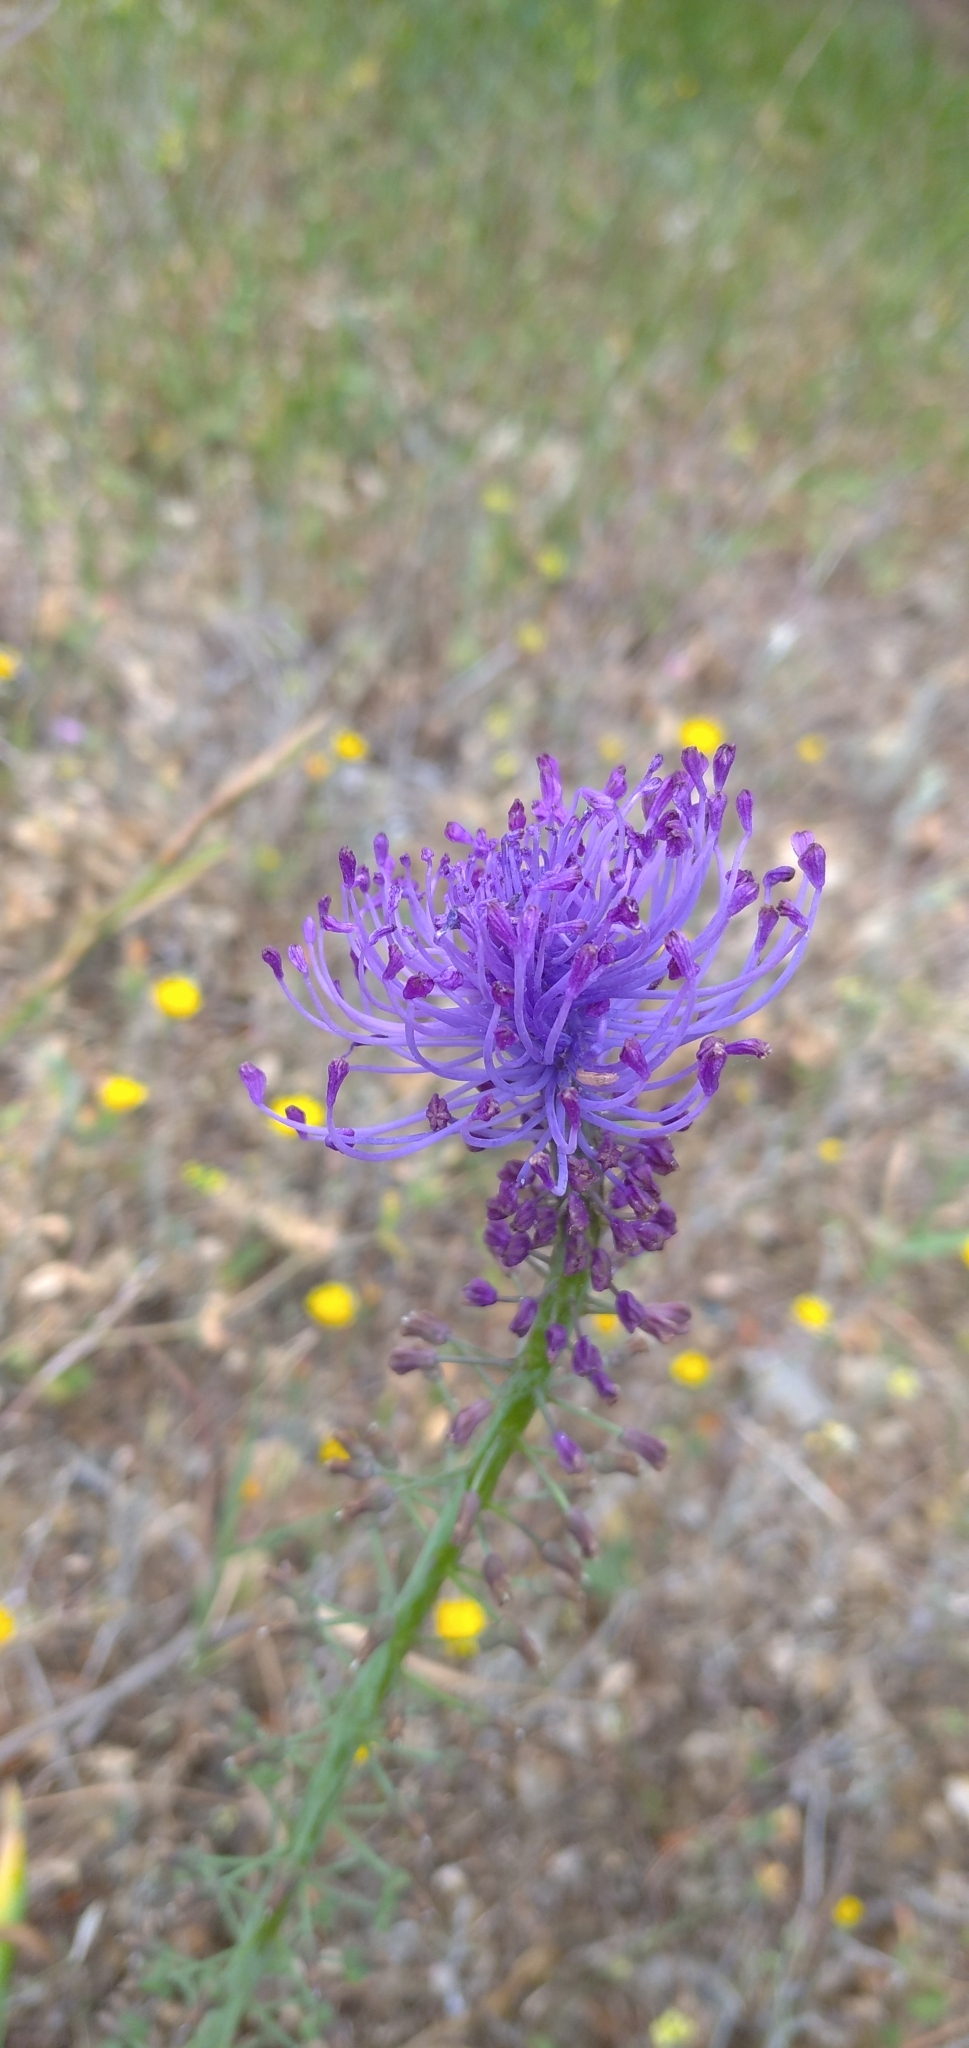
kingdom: Plantae
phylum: Tracheophyta
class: Liliopsida
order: Asparagales
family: Asparagaceae
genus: Muscari
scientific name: Muscari comosum
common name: Tassel hyacinth
